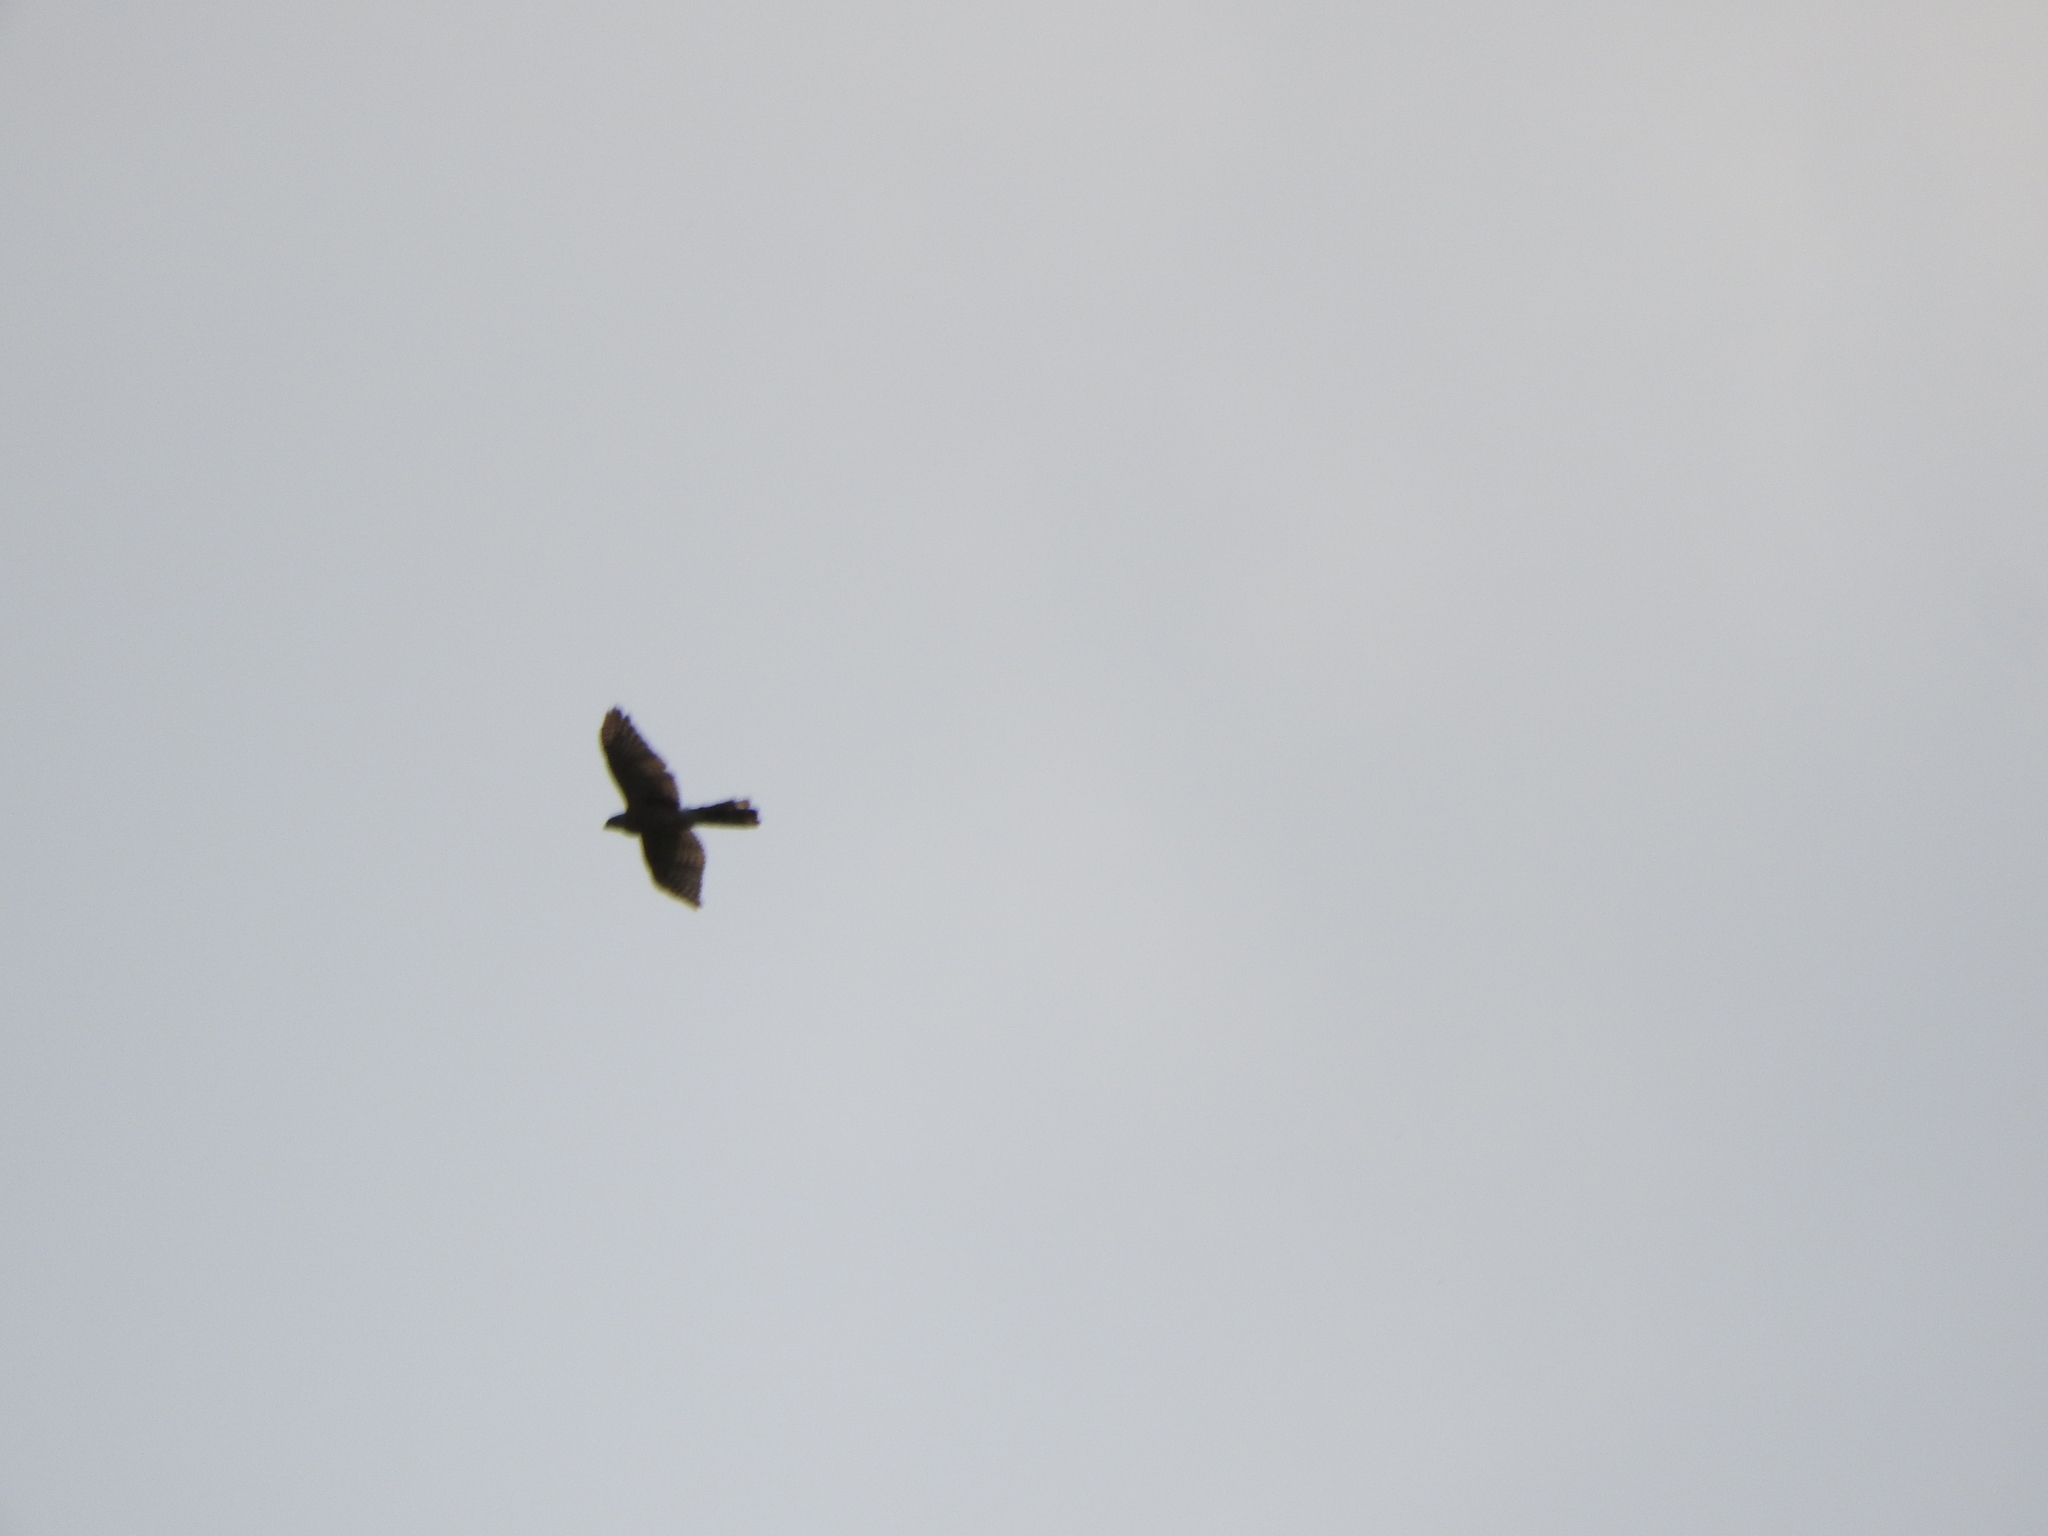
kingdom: Animalia
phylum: Chordata
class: Aves
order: Accipitriformes
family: Accipitridae
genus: Accipiter
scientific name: Accipiter cooperii
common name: Cooper's hawk
